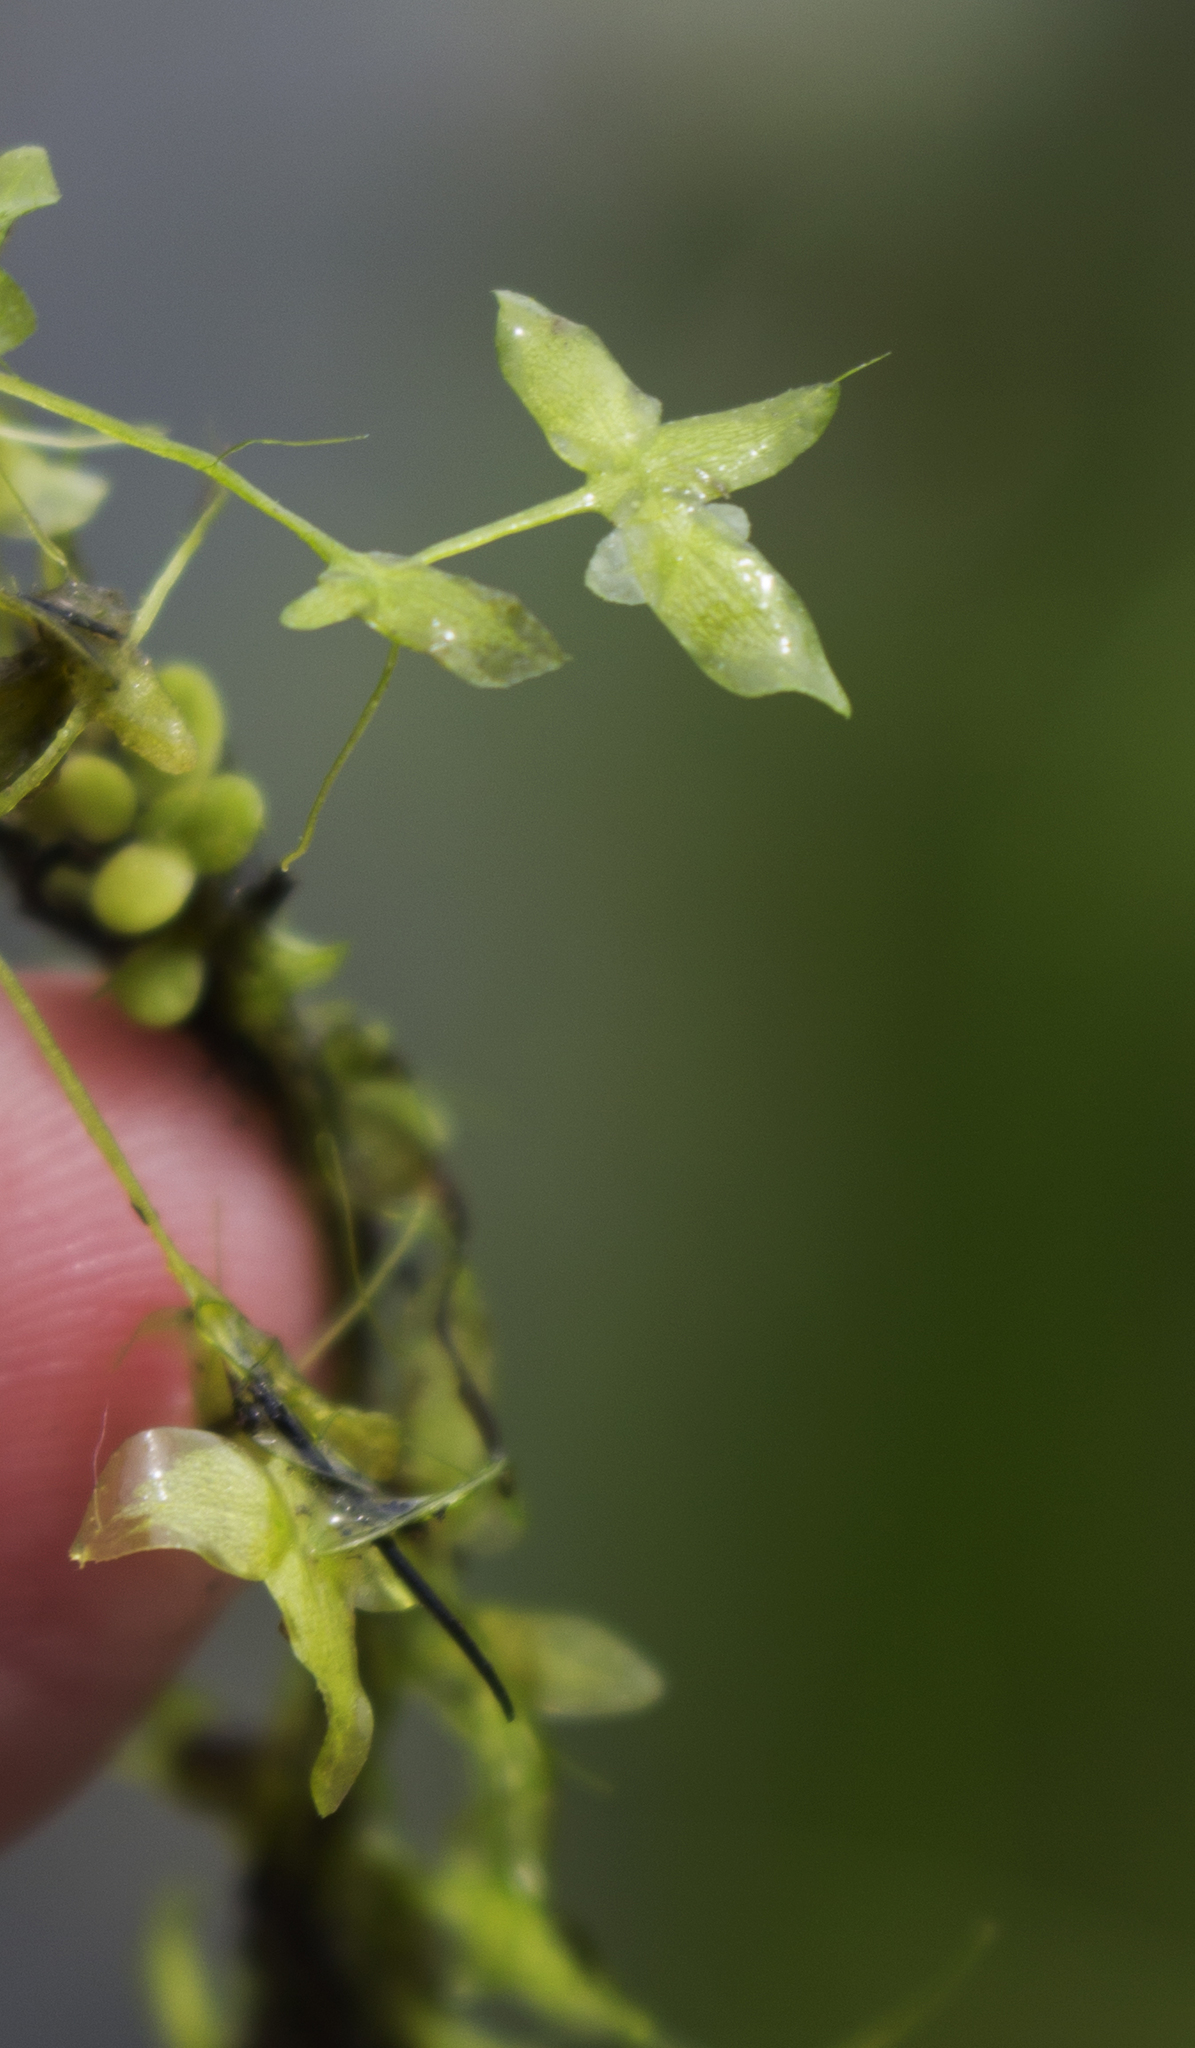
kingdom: Plantae
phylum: Tracheophyta
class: Liliopsida
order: Alismatales
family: Araceae
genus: Lemna
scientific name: Lemna trisulca
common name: Ivy-leaved duckweed
